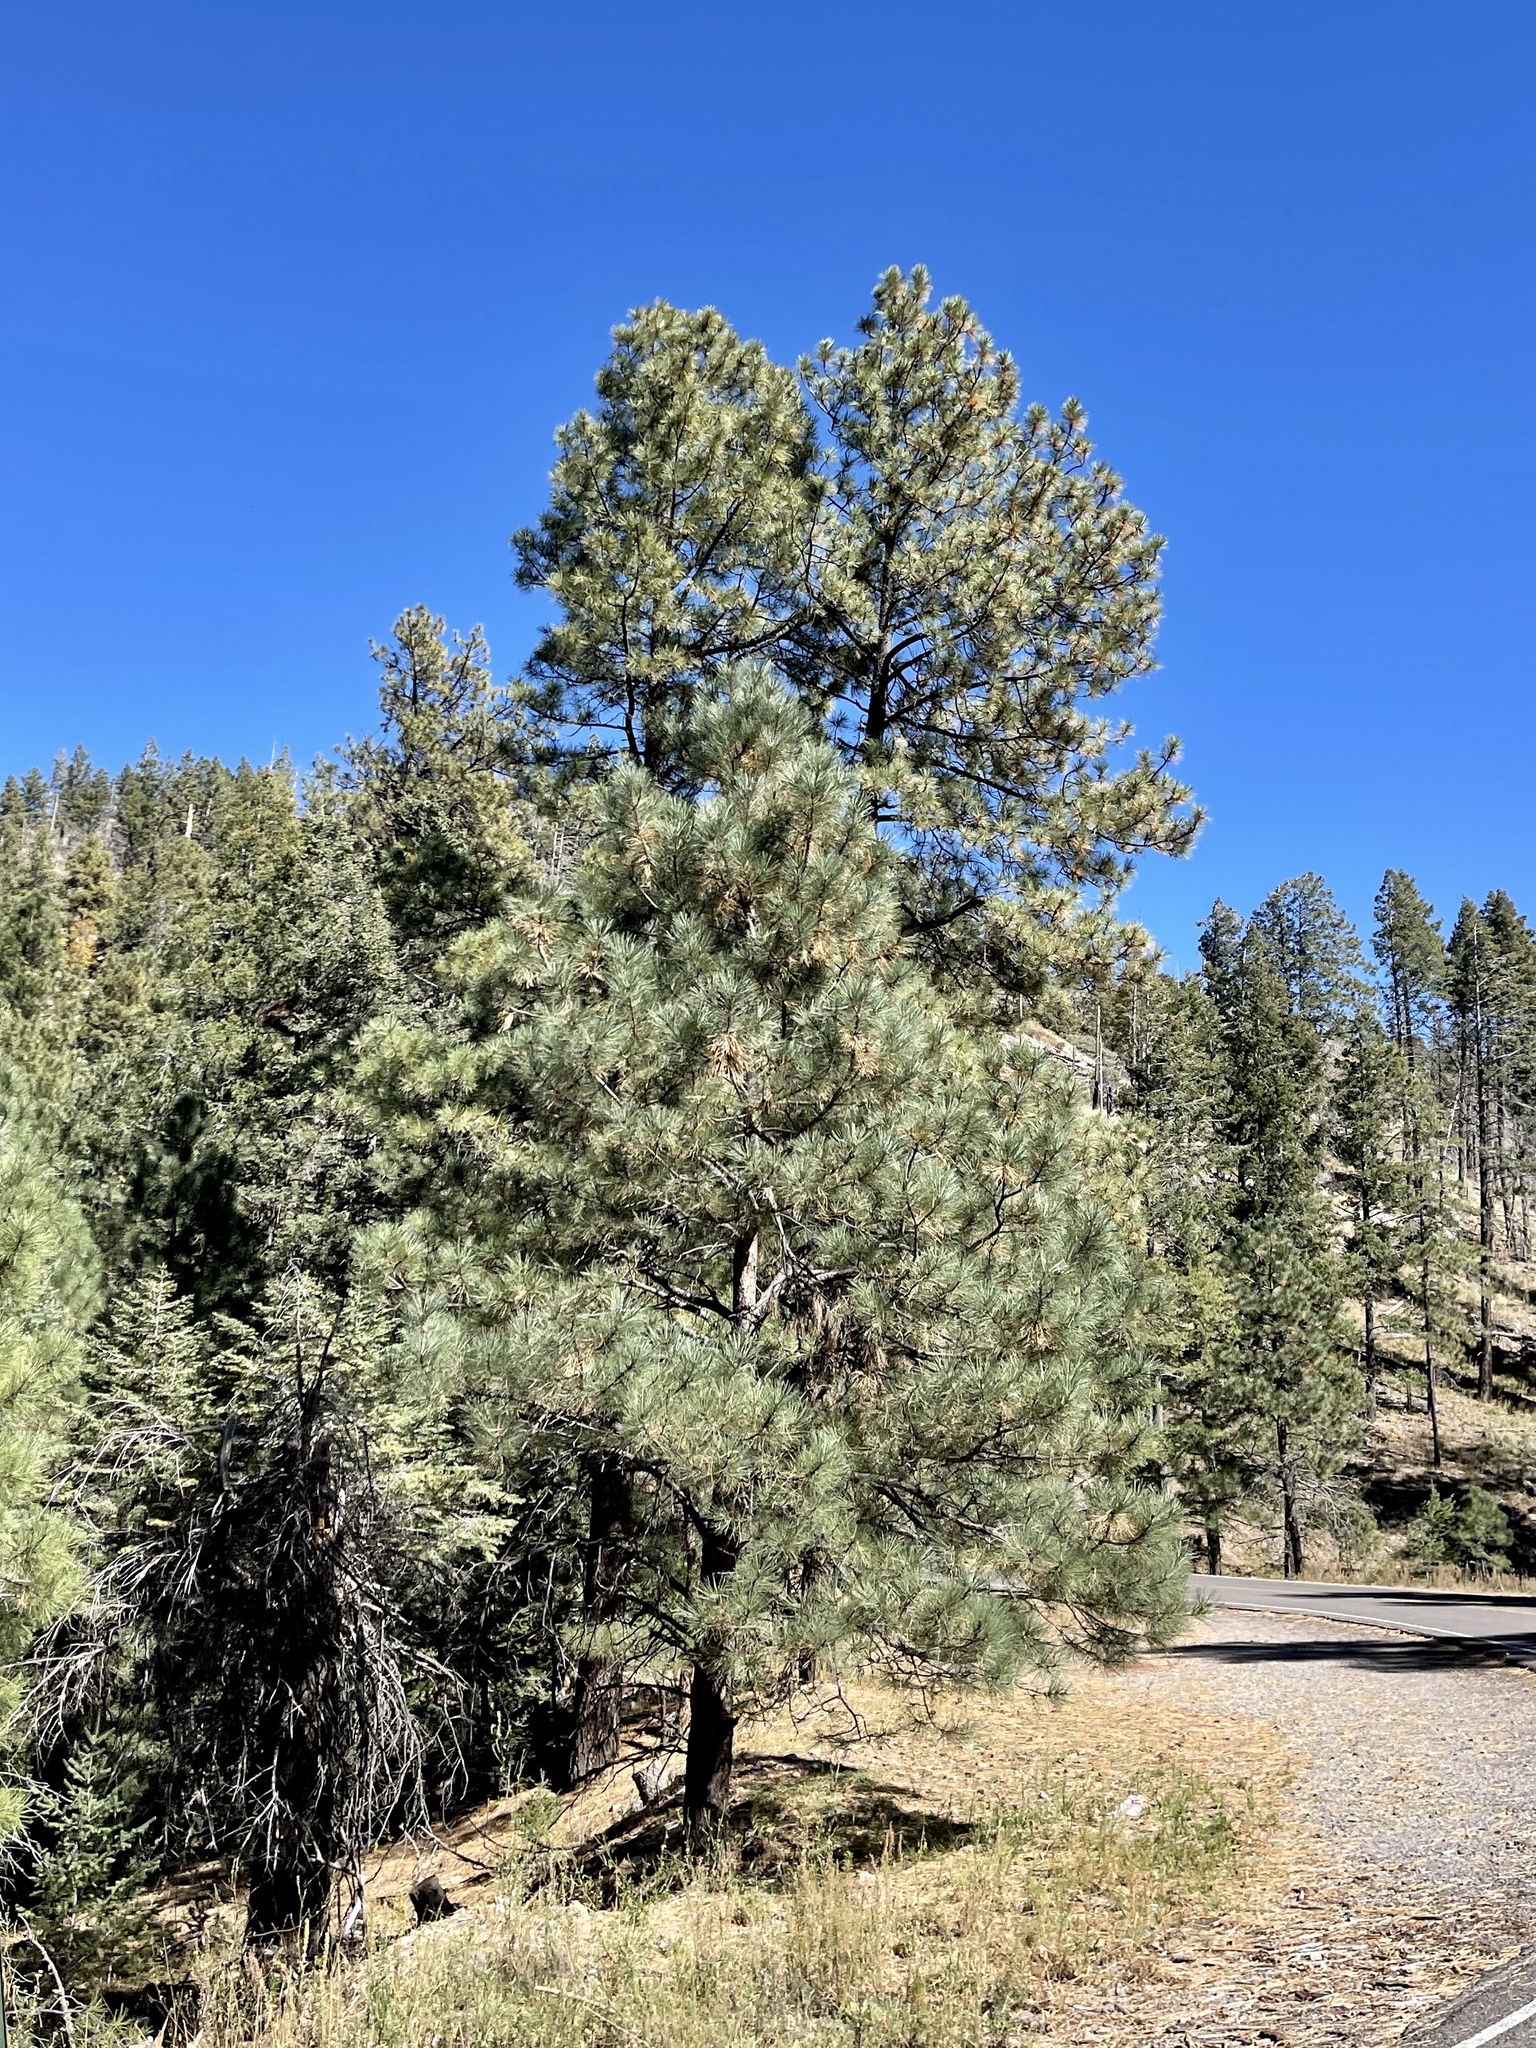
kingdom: Plantae
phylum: Tracheophyta
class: Pinopsida
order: Pinales
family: Pinaceae
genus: Pinus
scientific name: Pinus ponderosa
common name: Western yellow-pine
